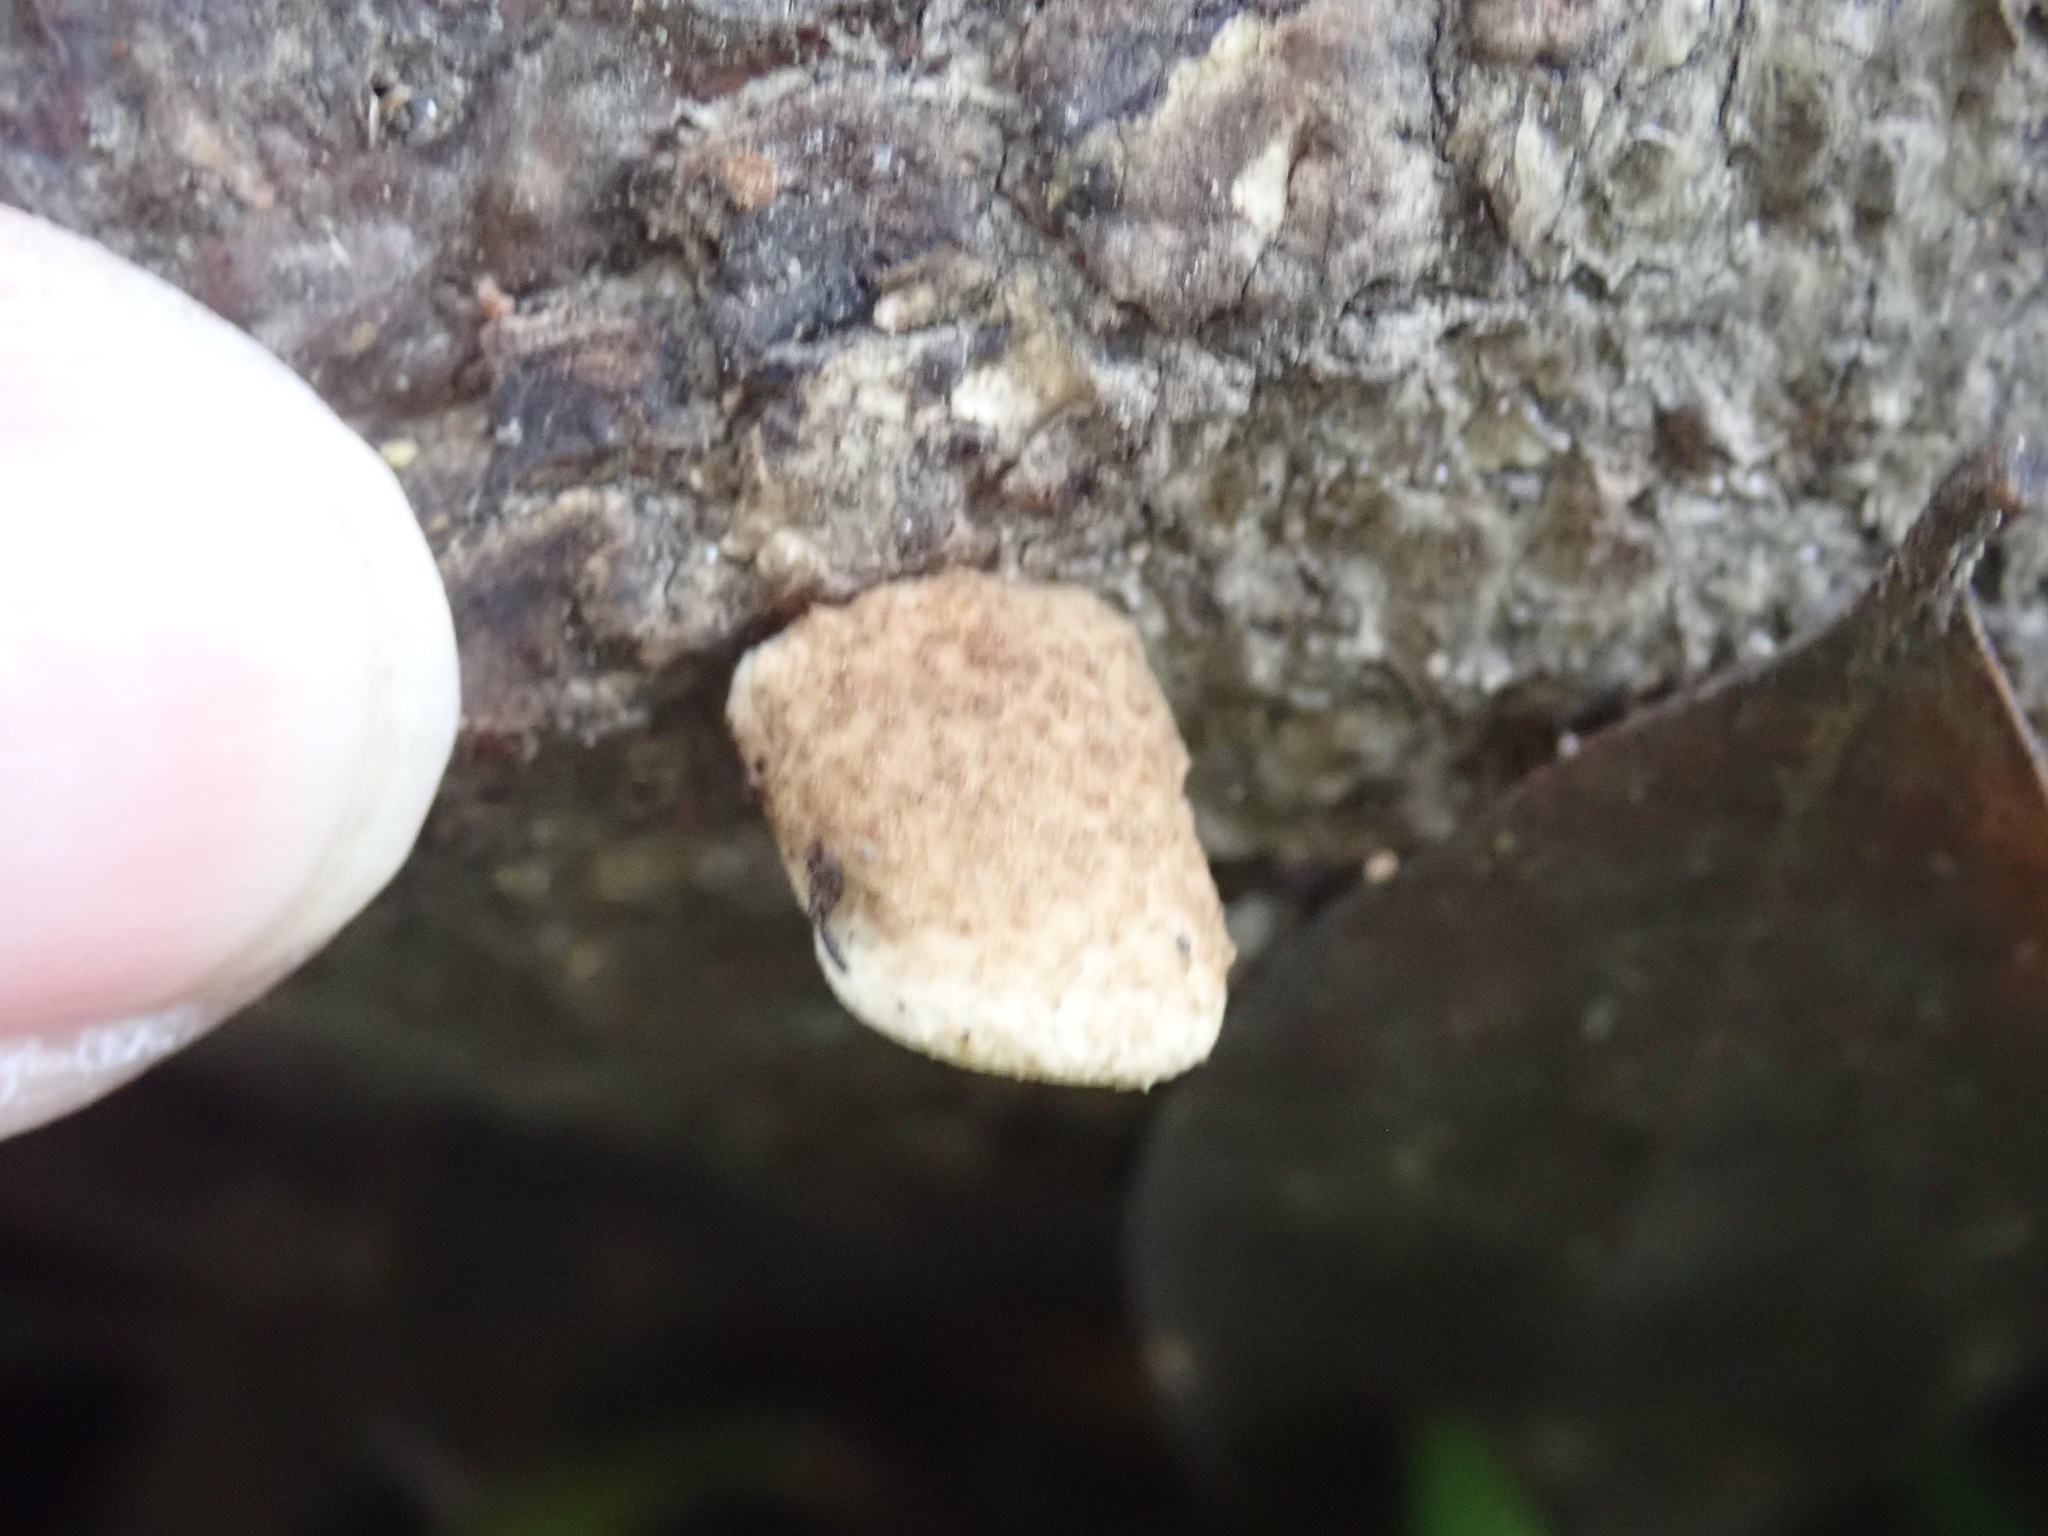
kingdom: Fungi
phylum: Basidiomycota
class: Agaricomycetes
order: Agaricales
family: Crepidotaceae
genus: Crepidotus
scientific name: Crepidotus mollis
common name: Peeling oysterling
